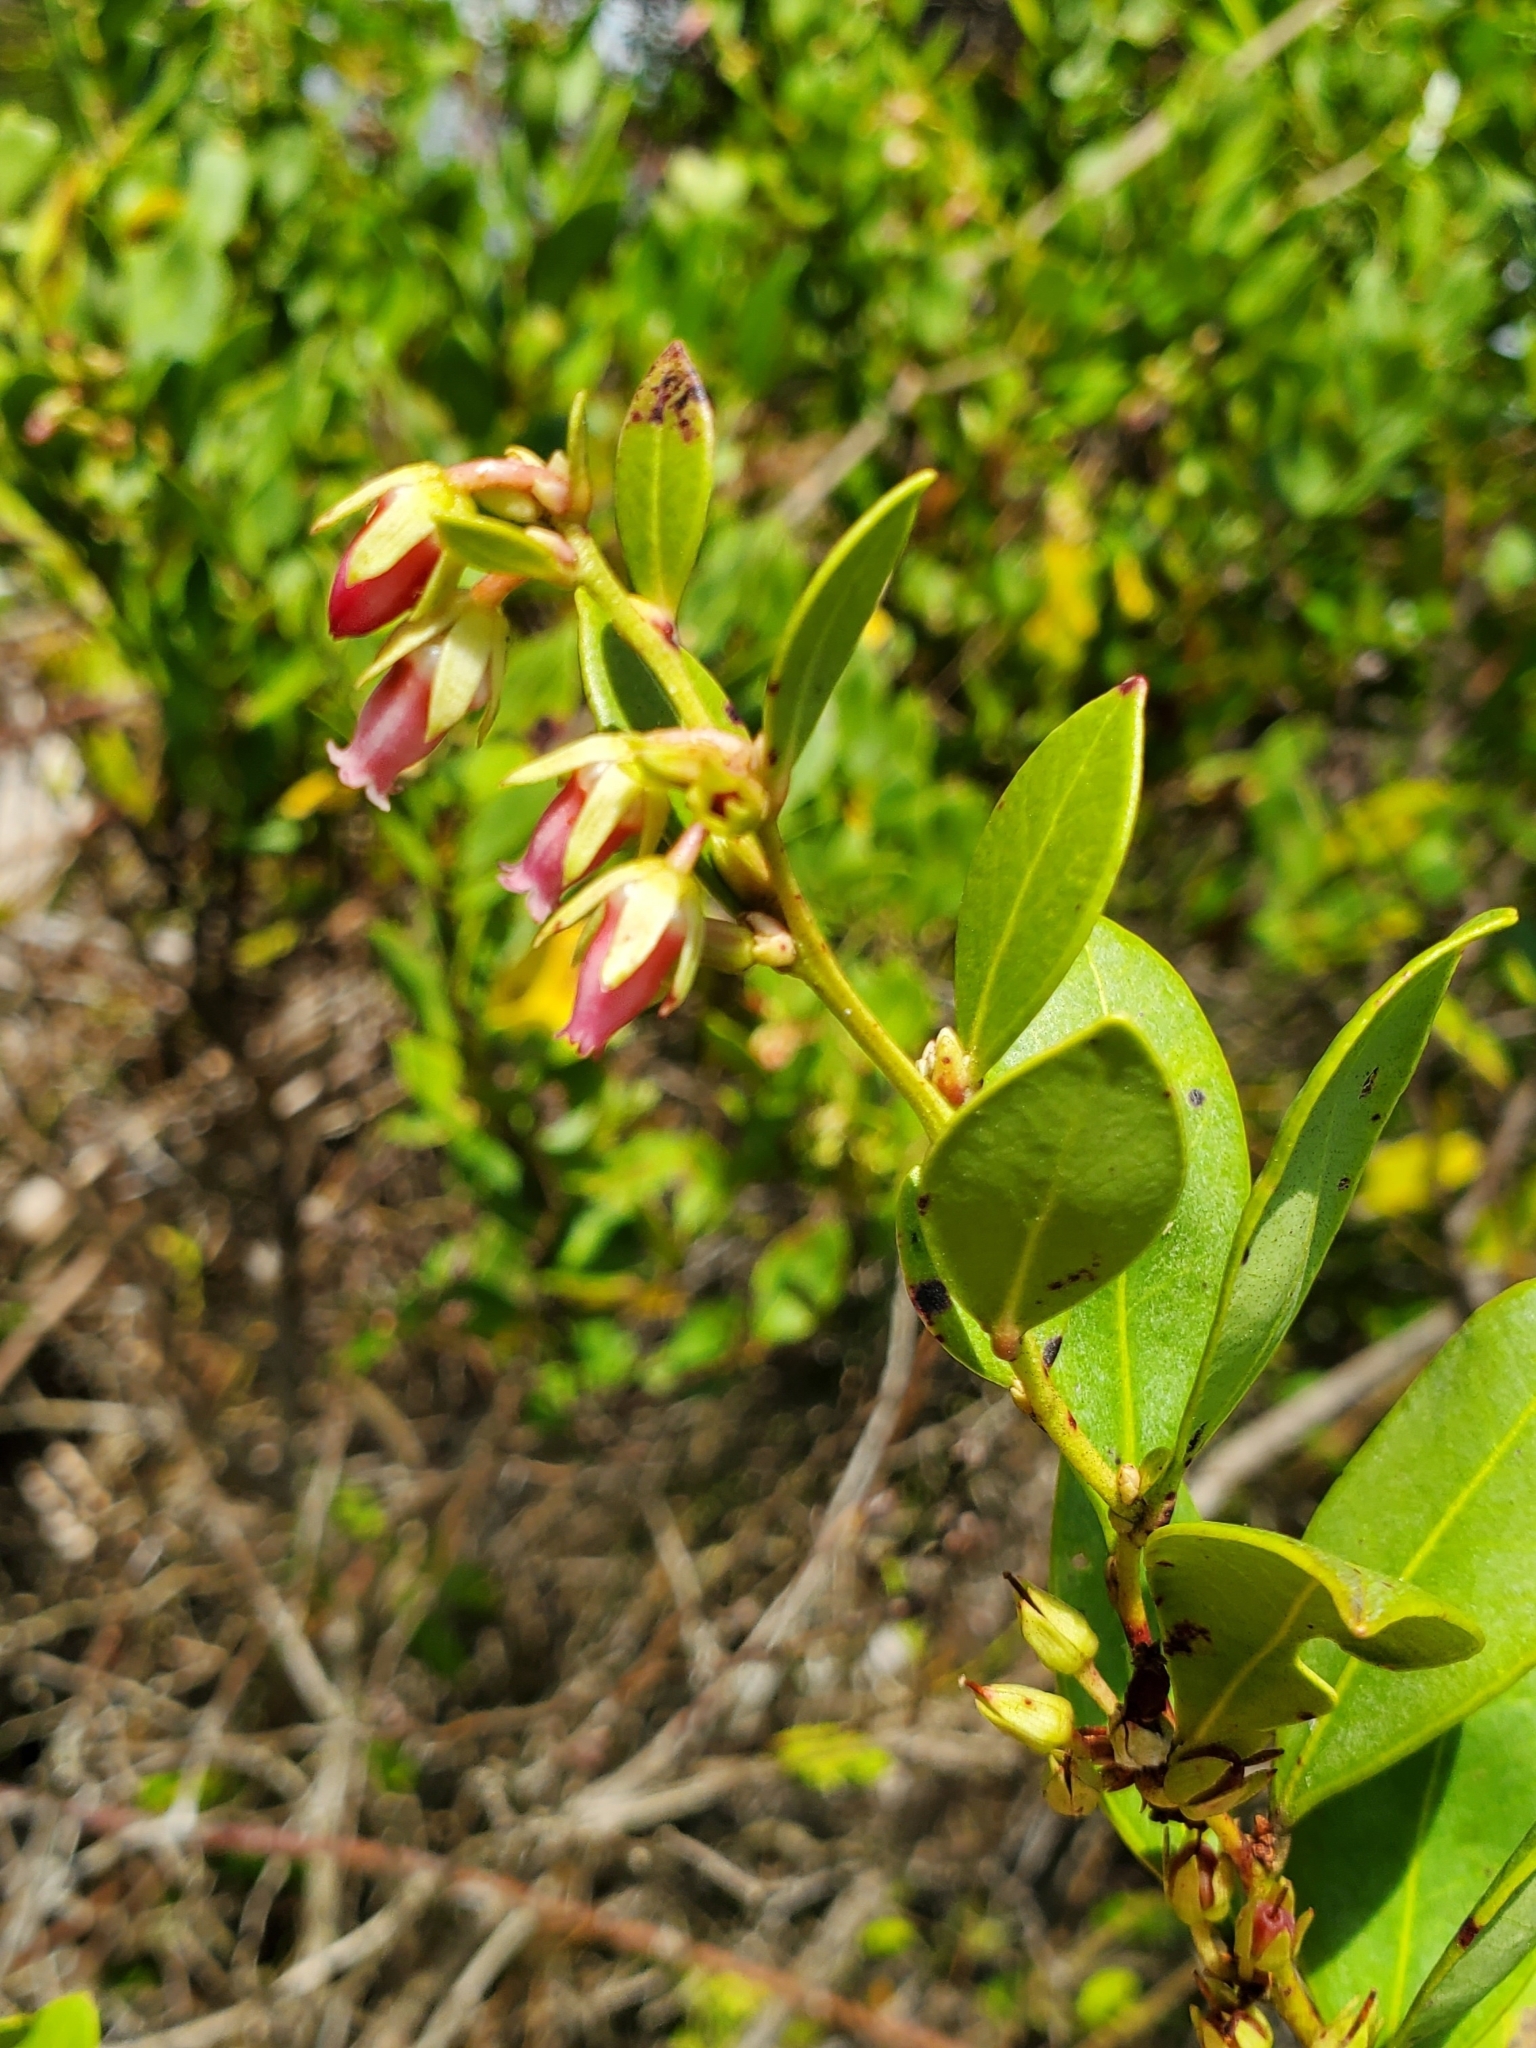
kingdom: Plantae
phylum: Tracheophyta
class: Magnoliopsida
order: Ericales
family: Ericaceae
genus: Lyonia
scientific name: Lyonia lucida
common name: Fetterbush
